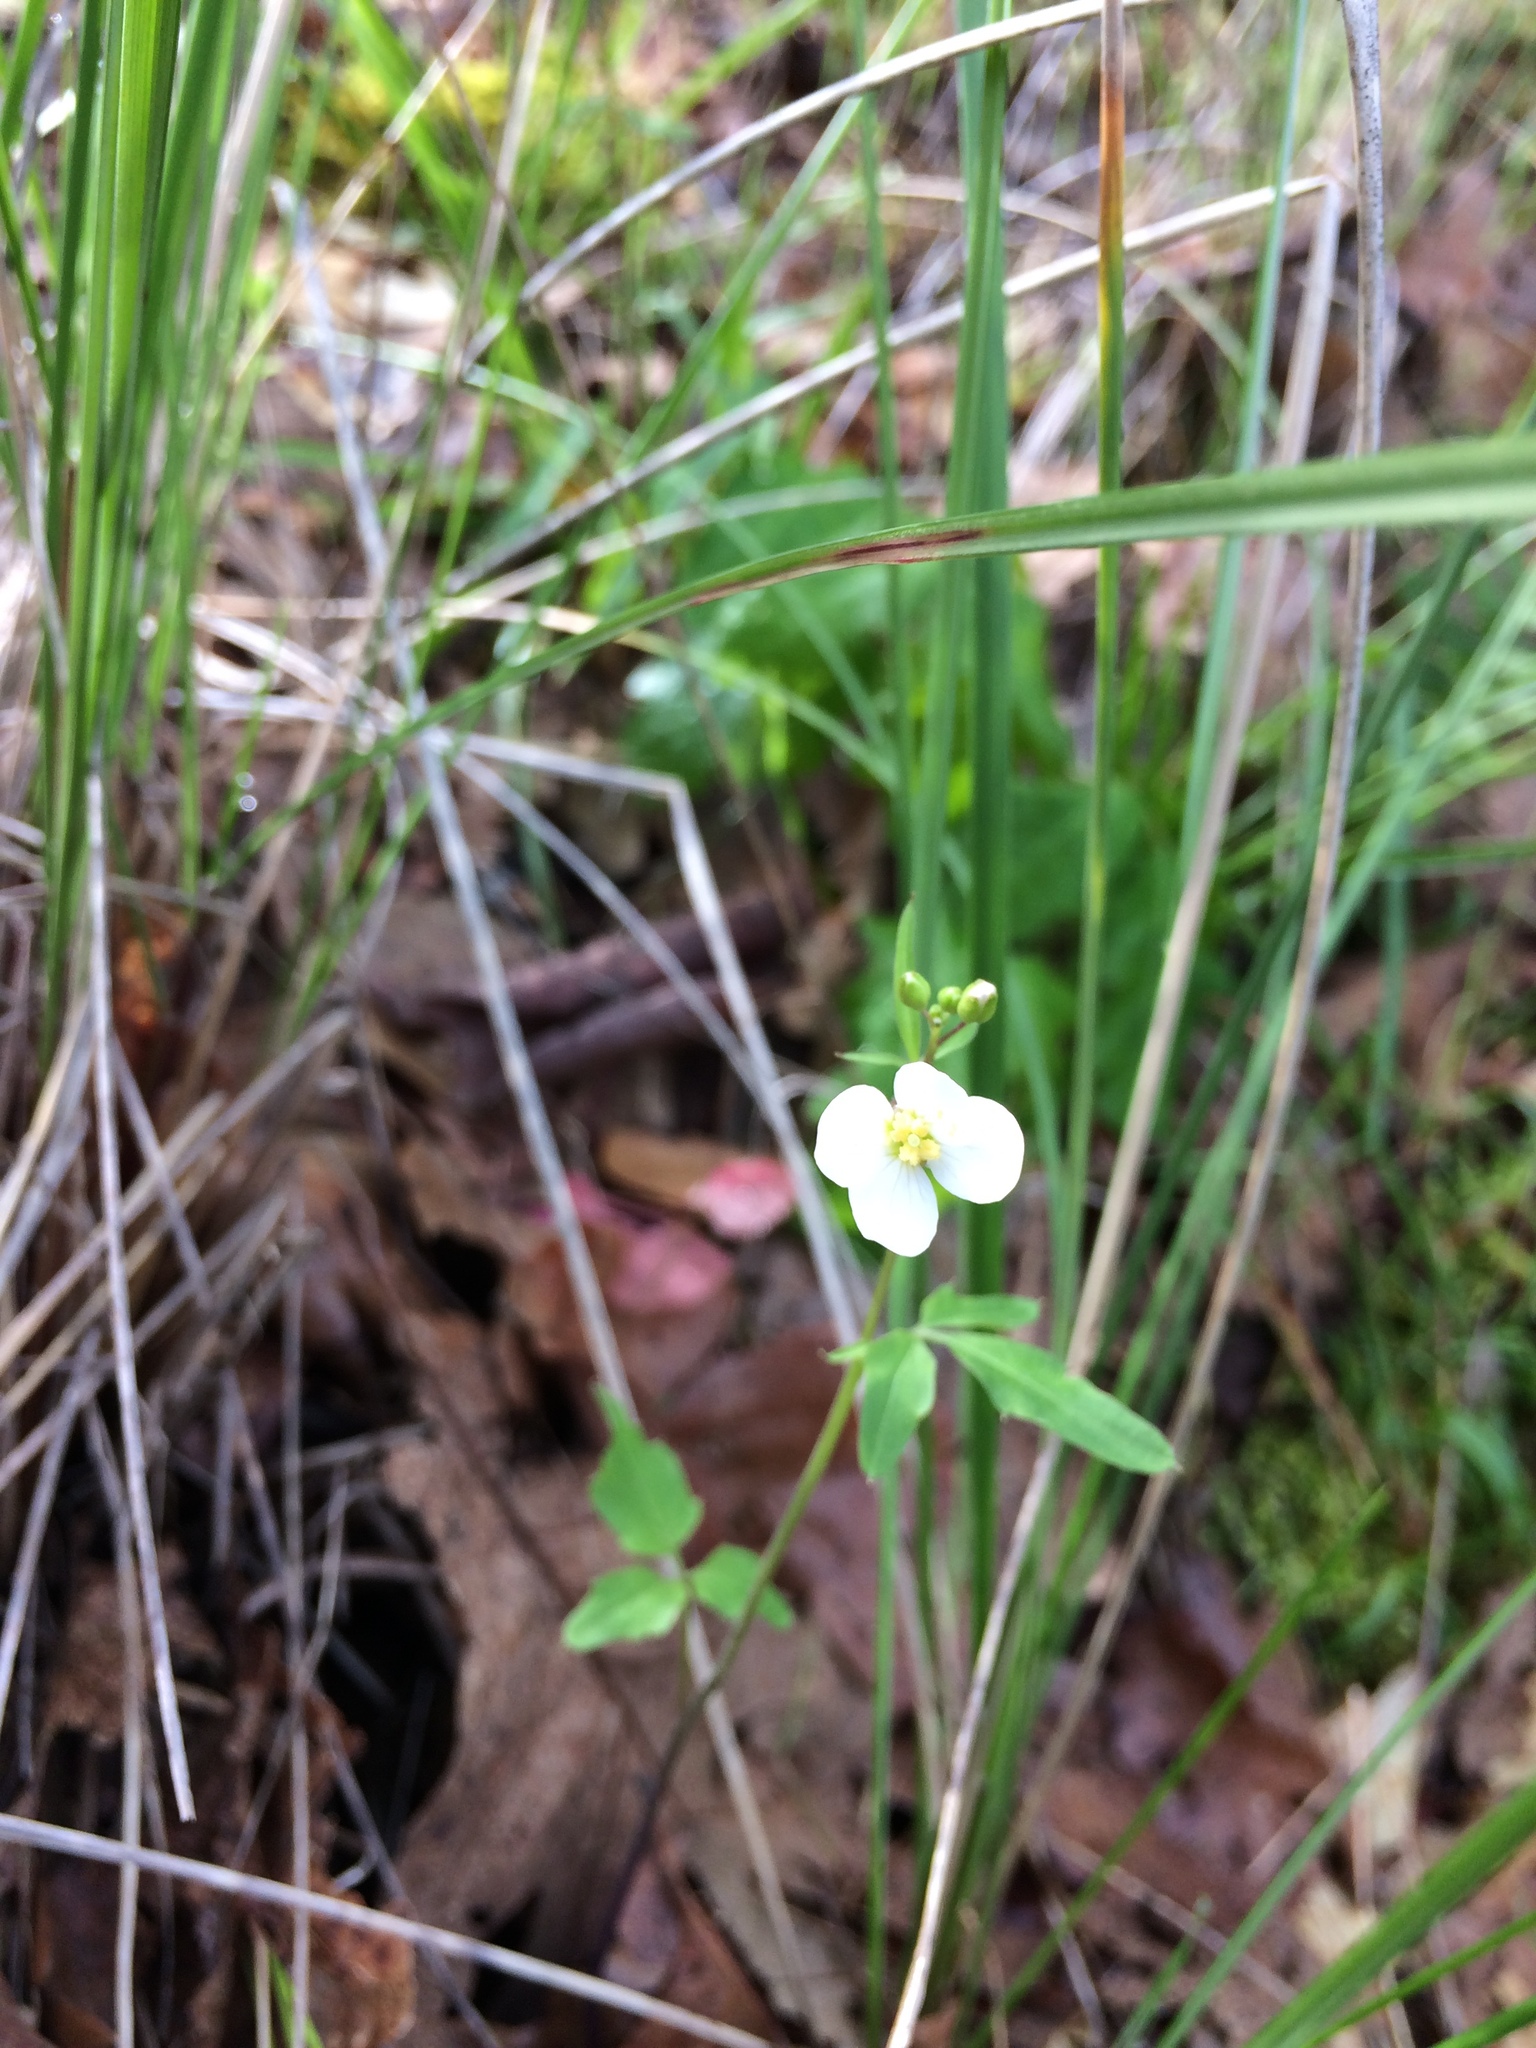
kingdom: Plantae
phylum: Tracheophyta
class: Magnoliopsida
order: Brassicales
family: Brassicaceae
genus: Cardamine
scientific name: Cardamine californica
